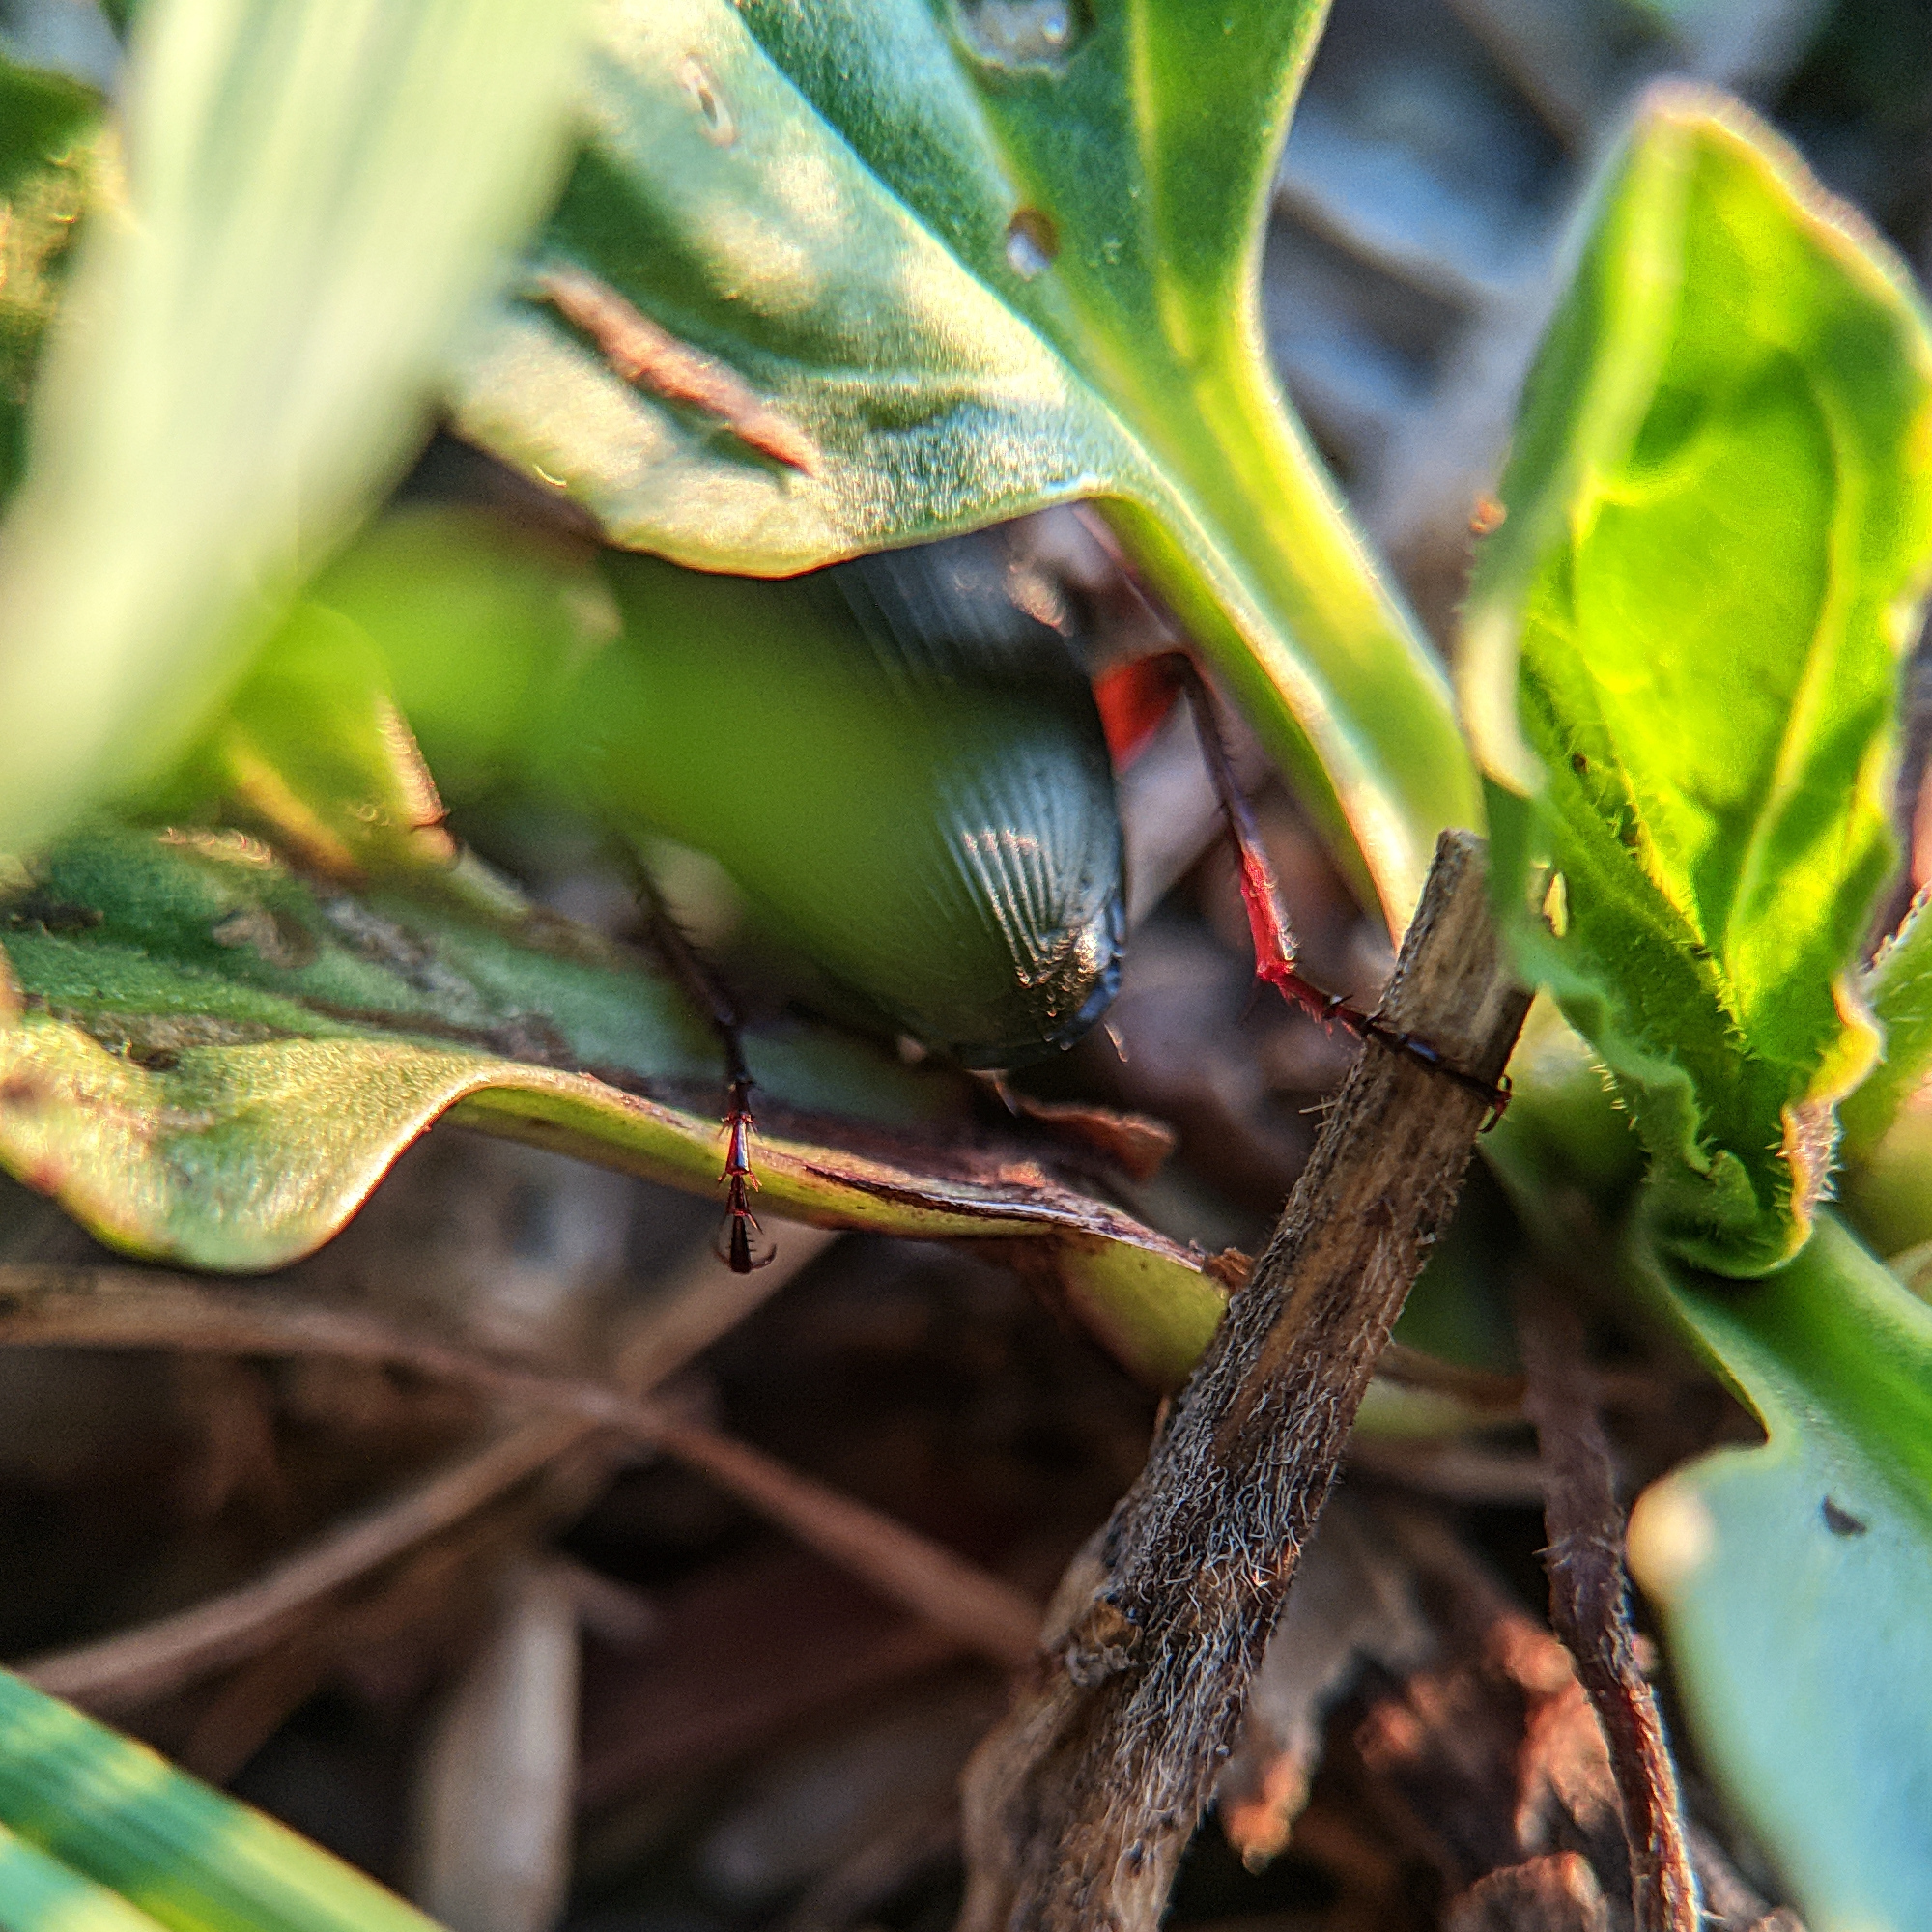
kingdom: Animalia
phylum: Arthropoda
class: Insecta
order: Coleoptera
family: Carabidae
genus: Calathus
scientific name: Calathus fuscipes
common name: Dark-footed harp ground beetle
